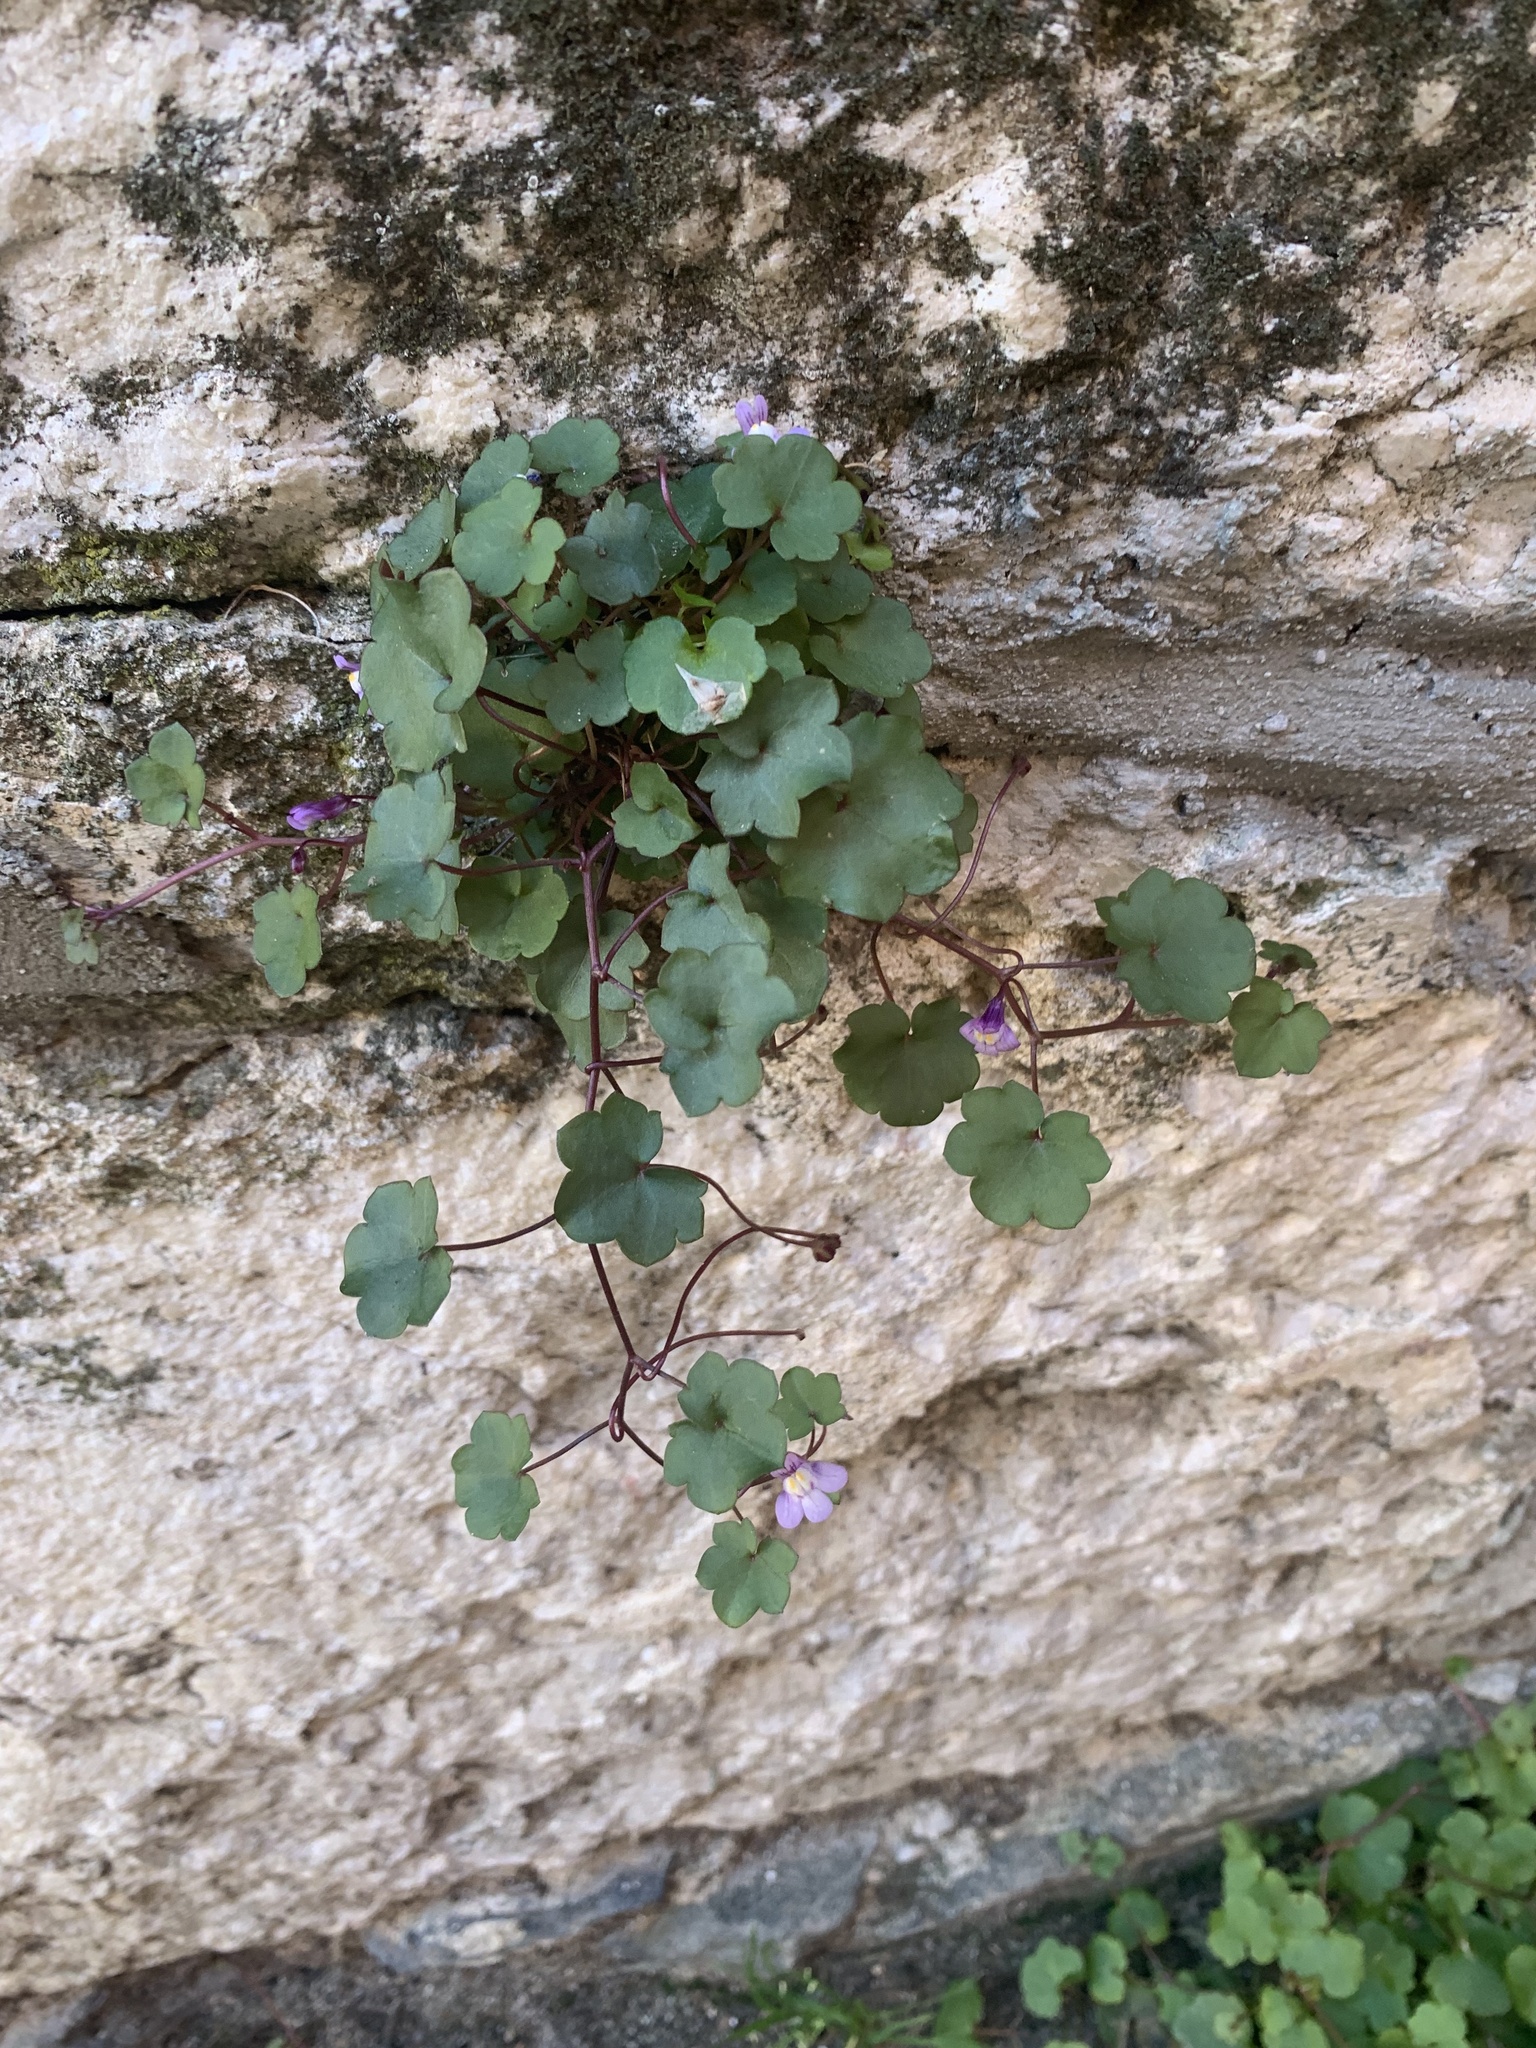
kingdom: Plantae
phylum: Tracheophyta
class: Magnoliopsida
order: Lamiales
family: Plantaginaceae
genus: Cymbalaria
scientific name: Cymbalaria muralis
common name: Ivy-leaved toadflax
